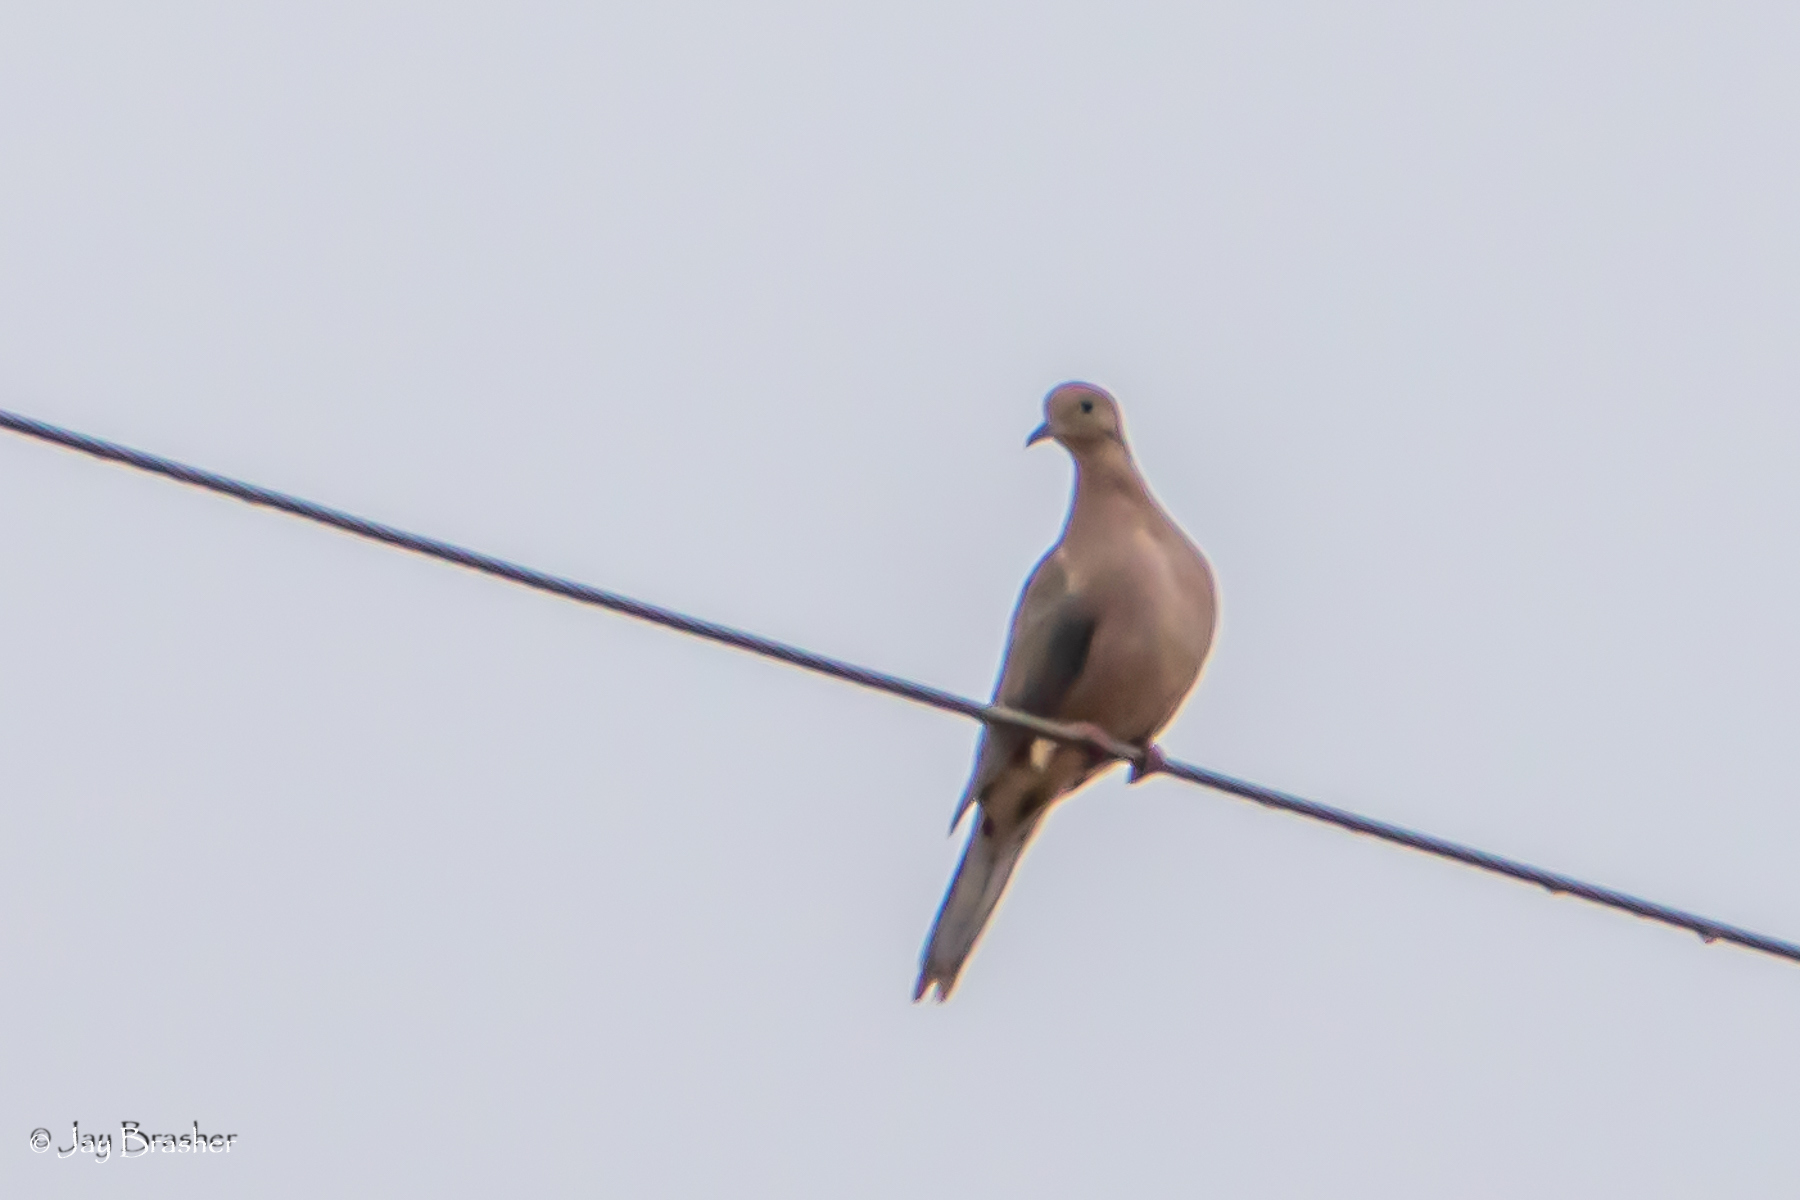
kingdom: Animalia
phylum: Chordata
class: Aves
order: Columbiformes
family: Columbidae
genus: Zenaida
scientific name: Zenaida macroura
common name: Mourning dove
